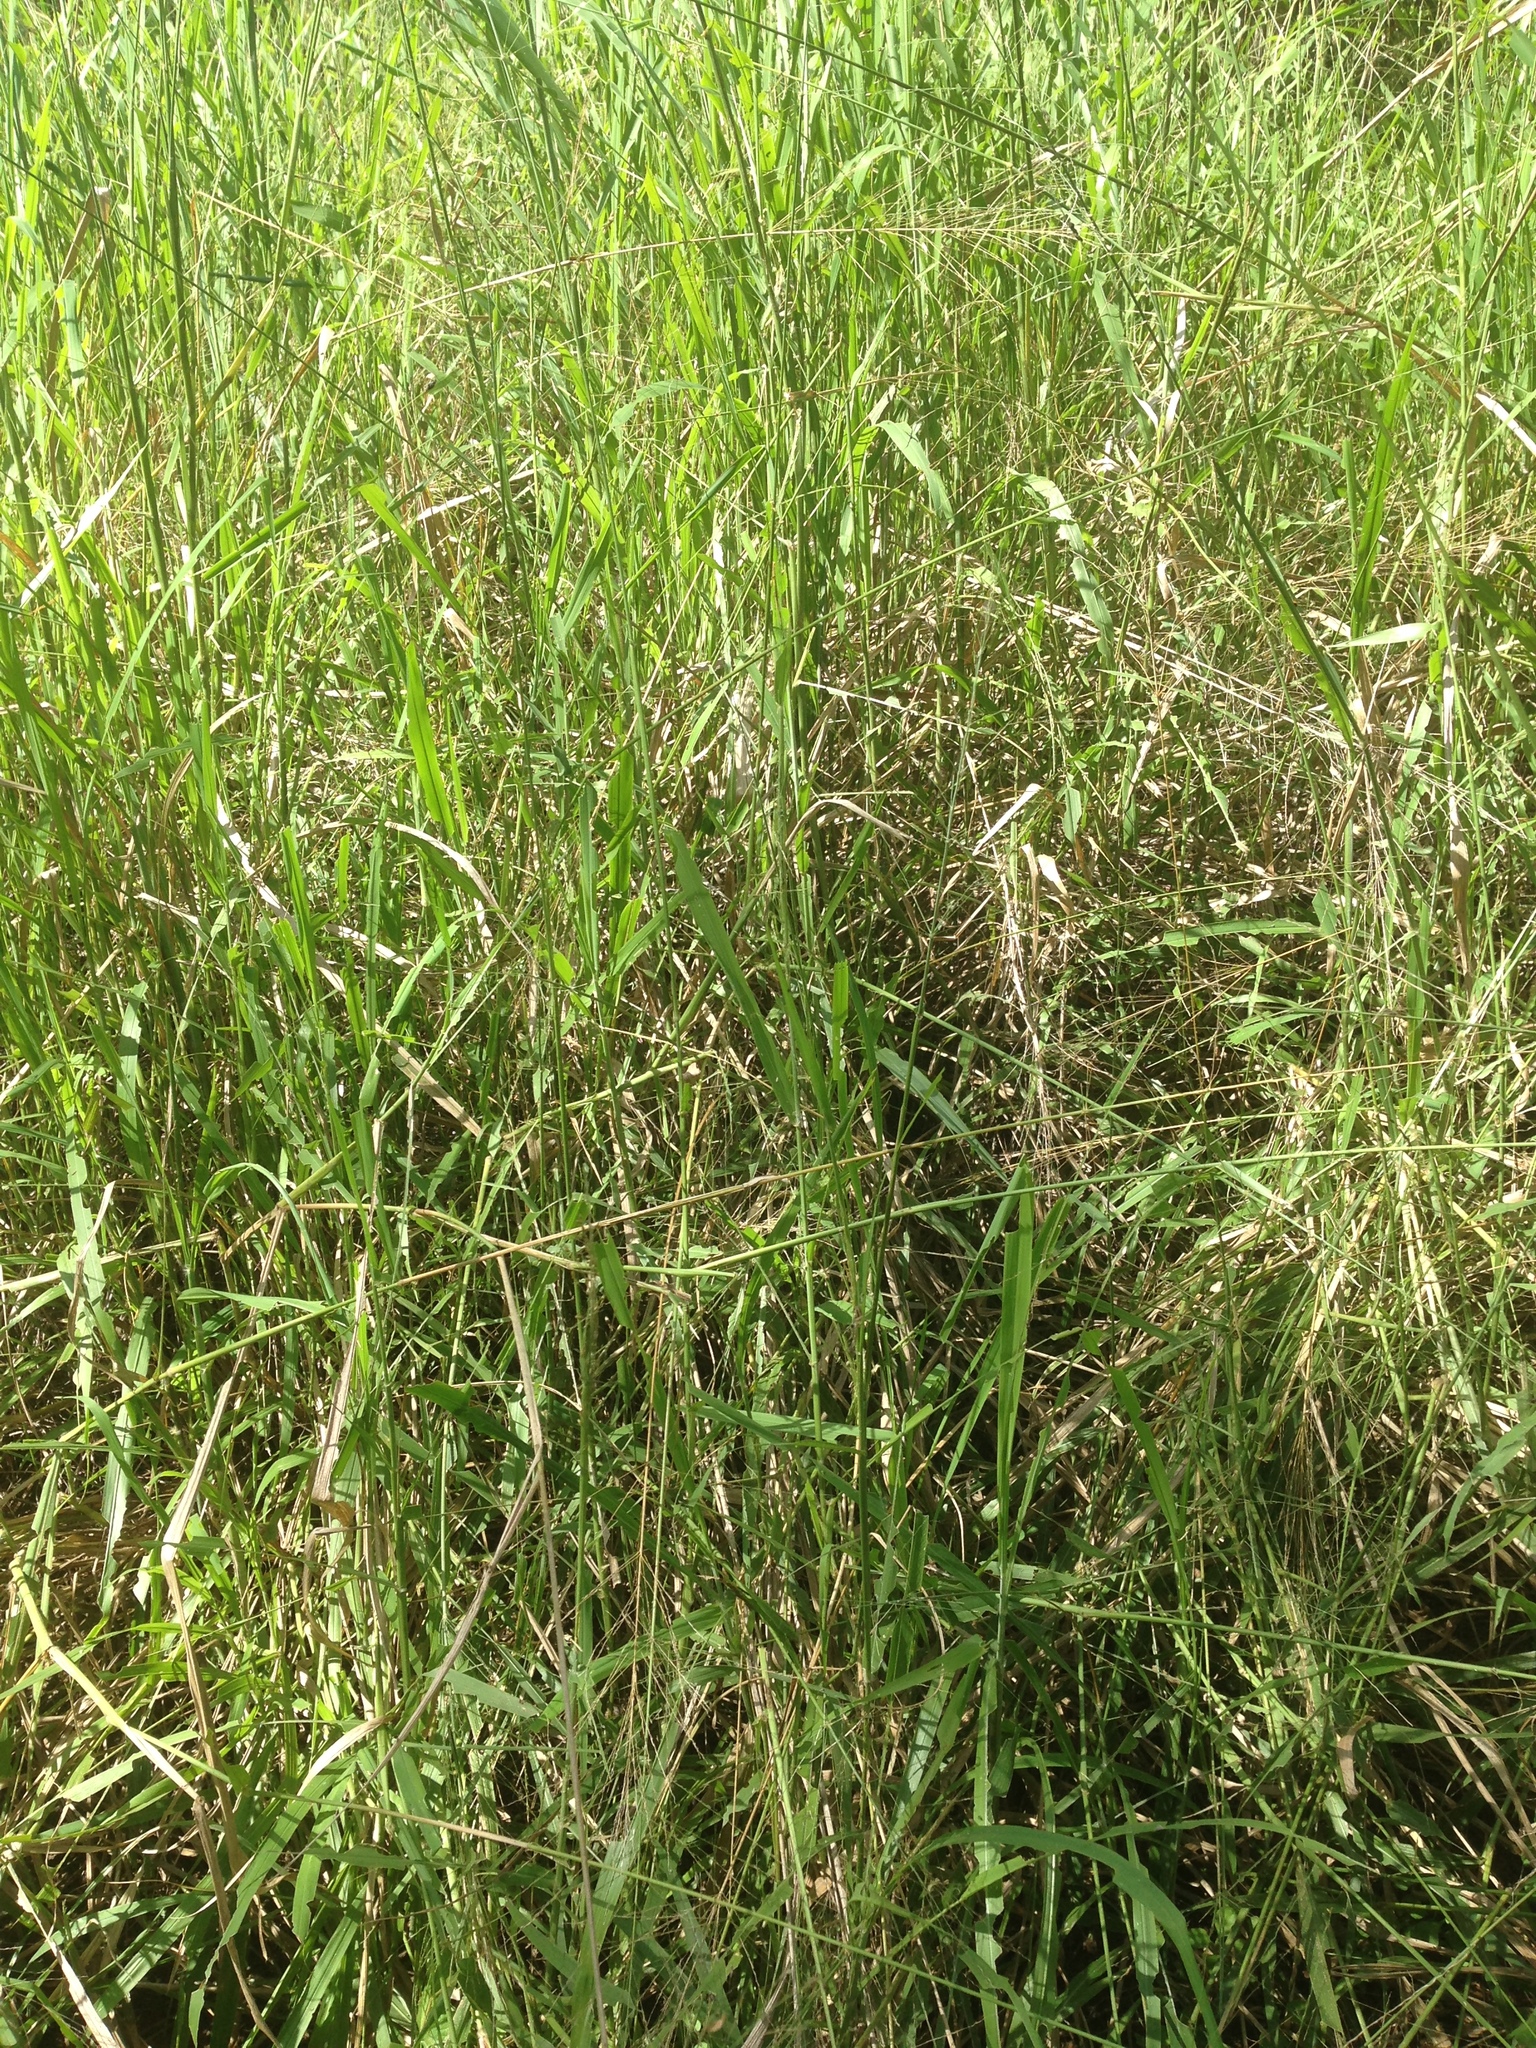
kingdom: Plantae
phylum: Tracheophyta
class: Liliopsida
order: Poales
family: Poaceae
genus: Megathyrsus
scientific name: Megathyrsus maximus
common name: Guineagrass
